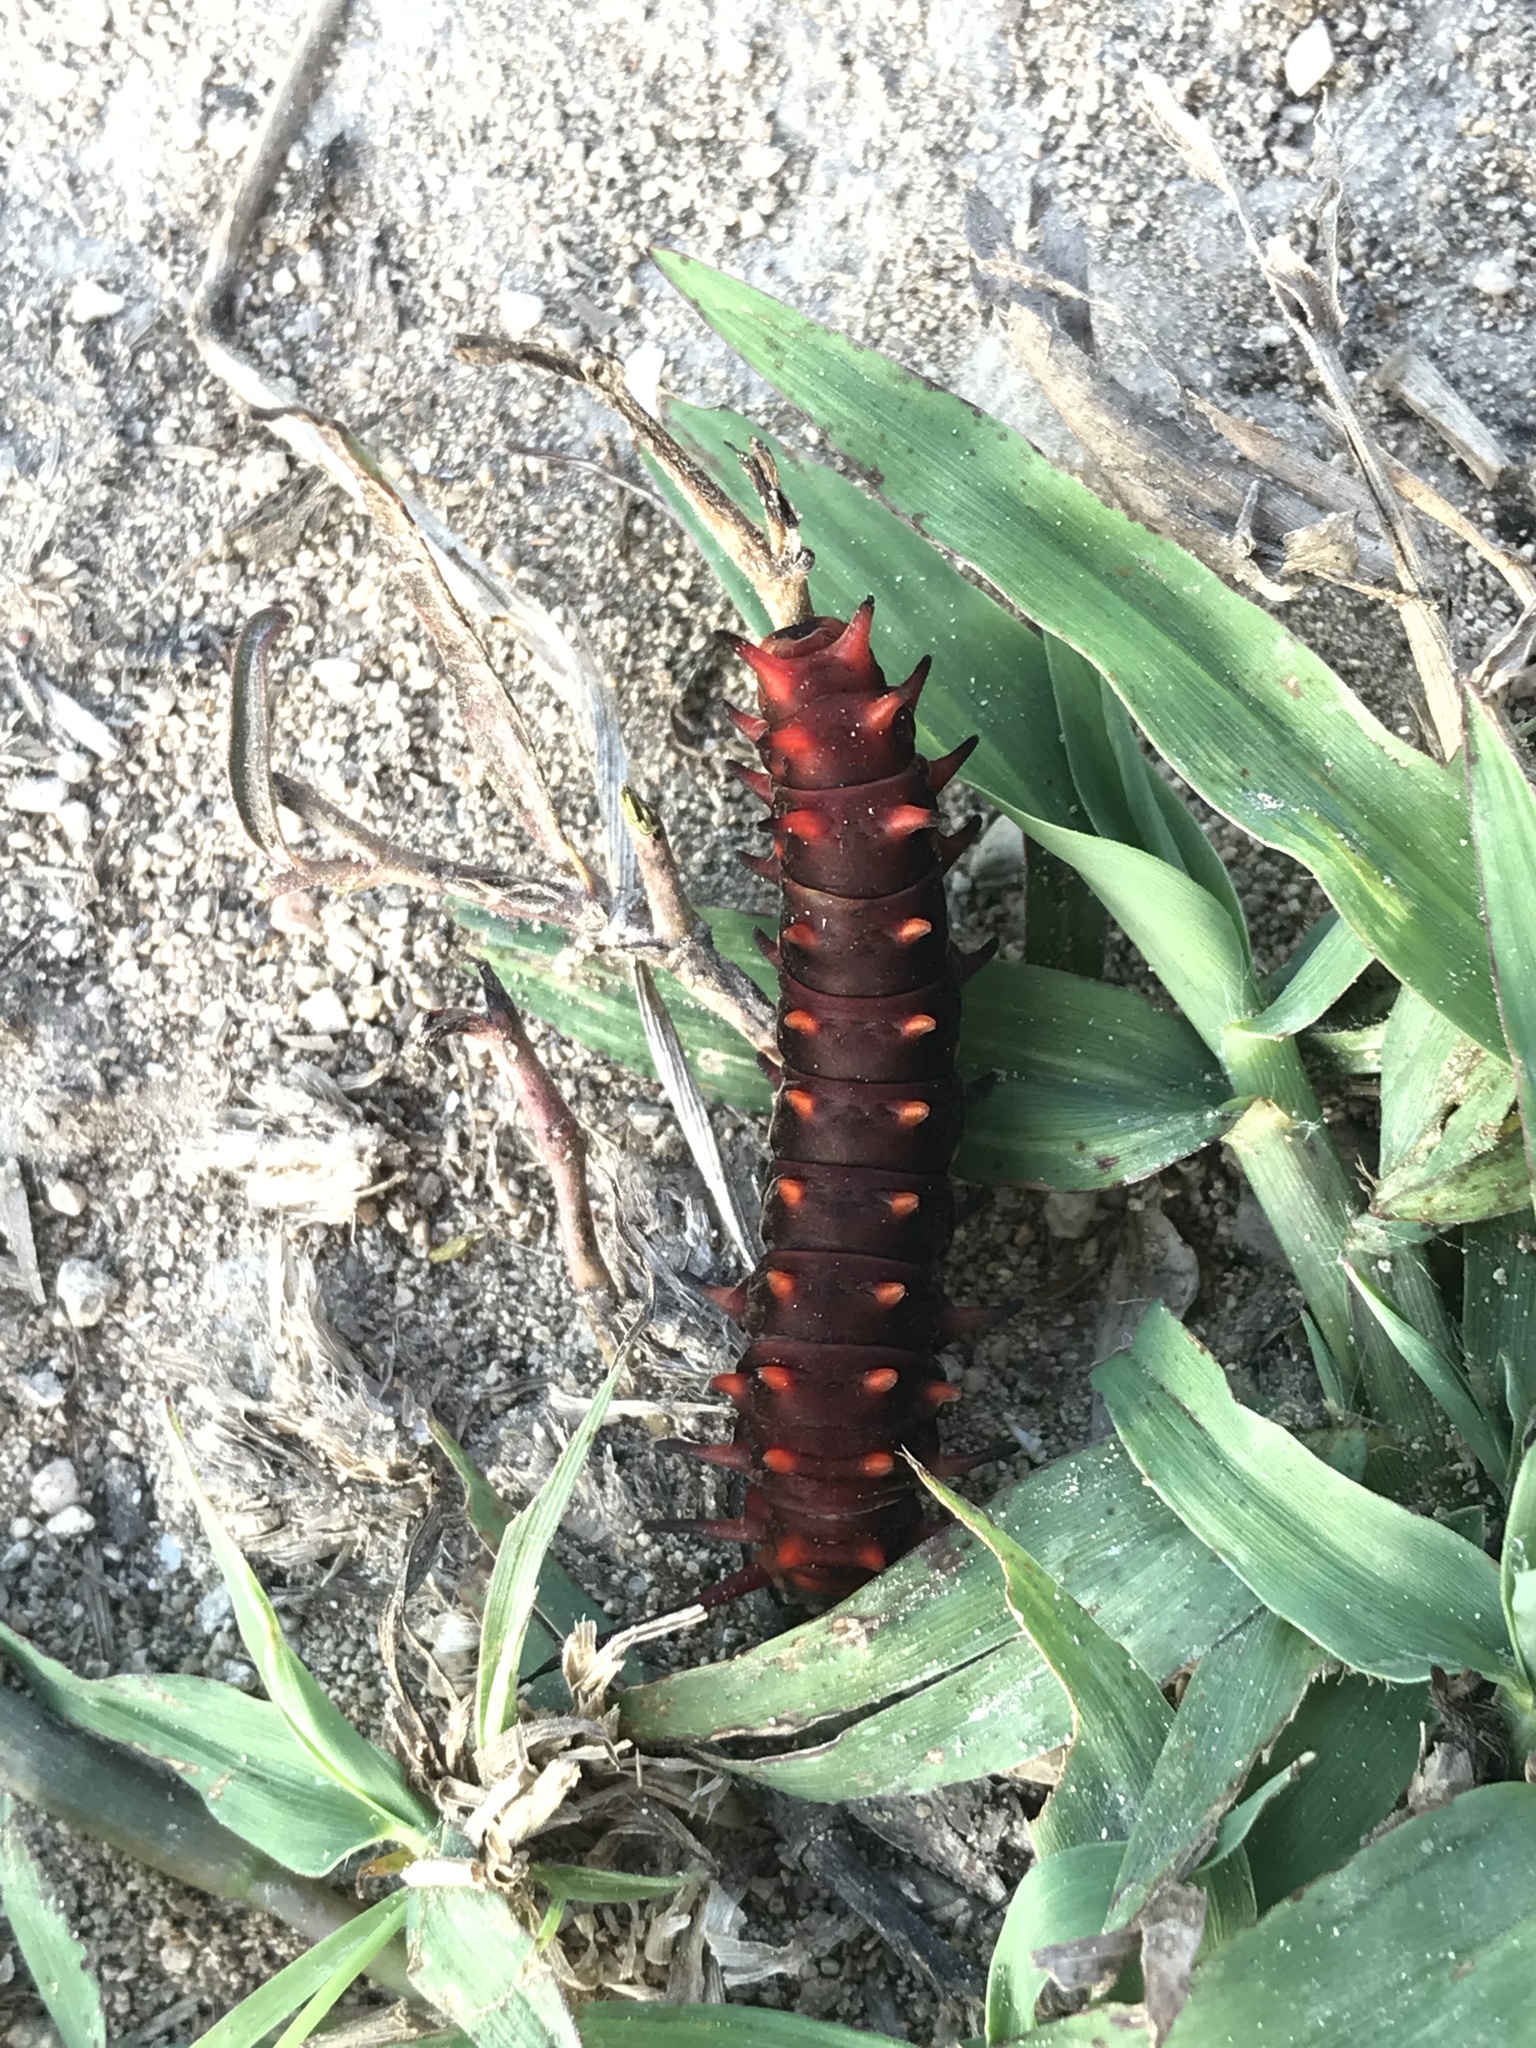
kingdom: Animalia
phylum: Arthropoda
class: Insecta
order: Lepidoptera
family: Papilionidae
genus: Battus
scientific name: Battus philenor
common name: Pipevine swallowtail
